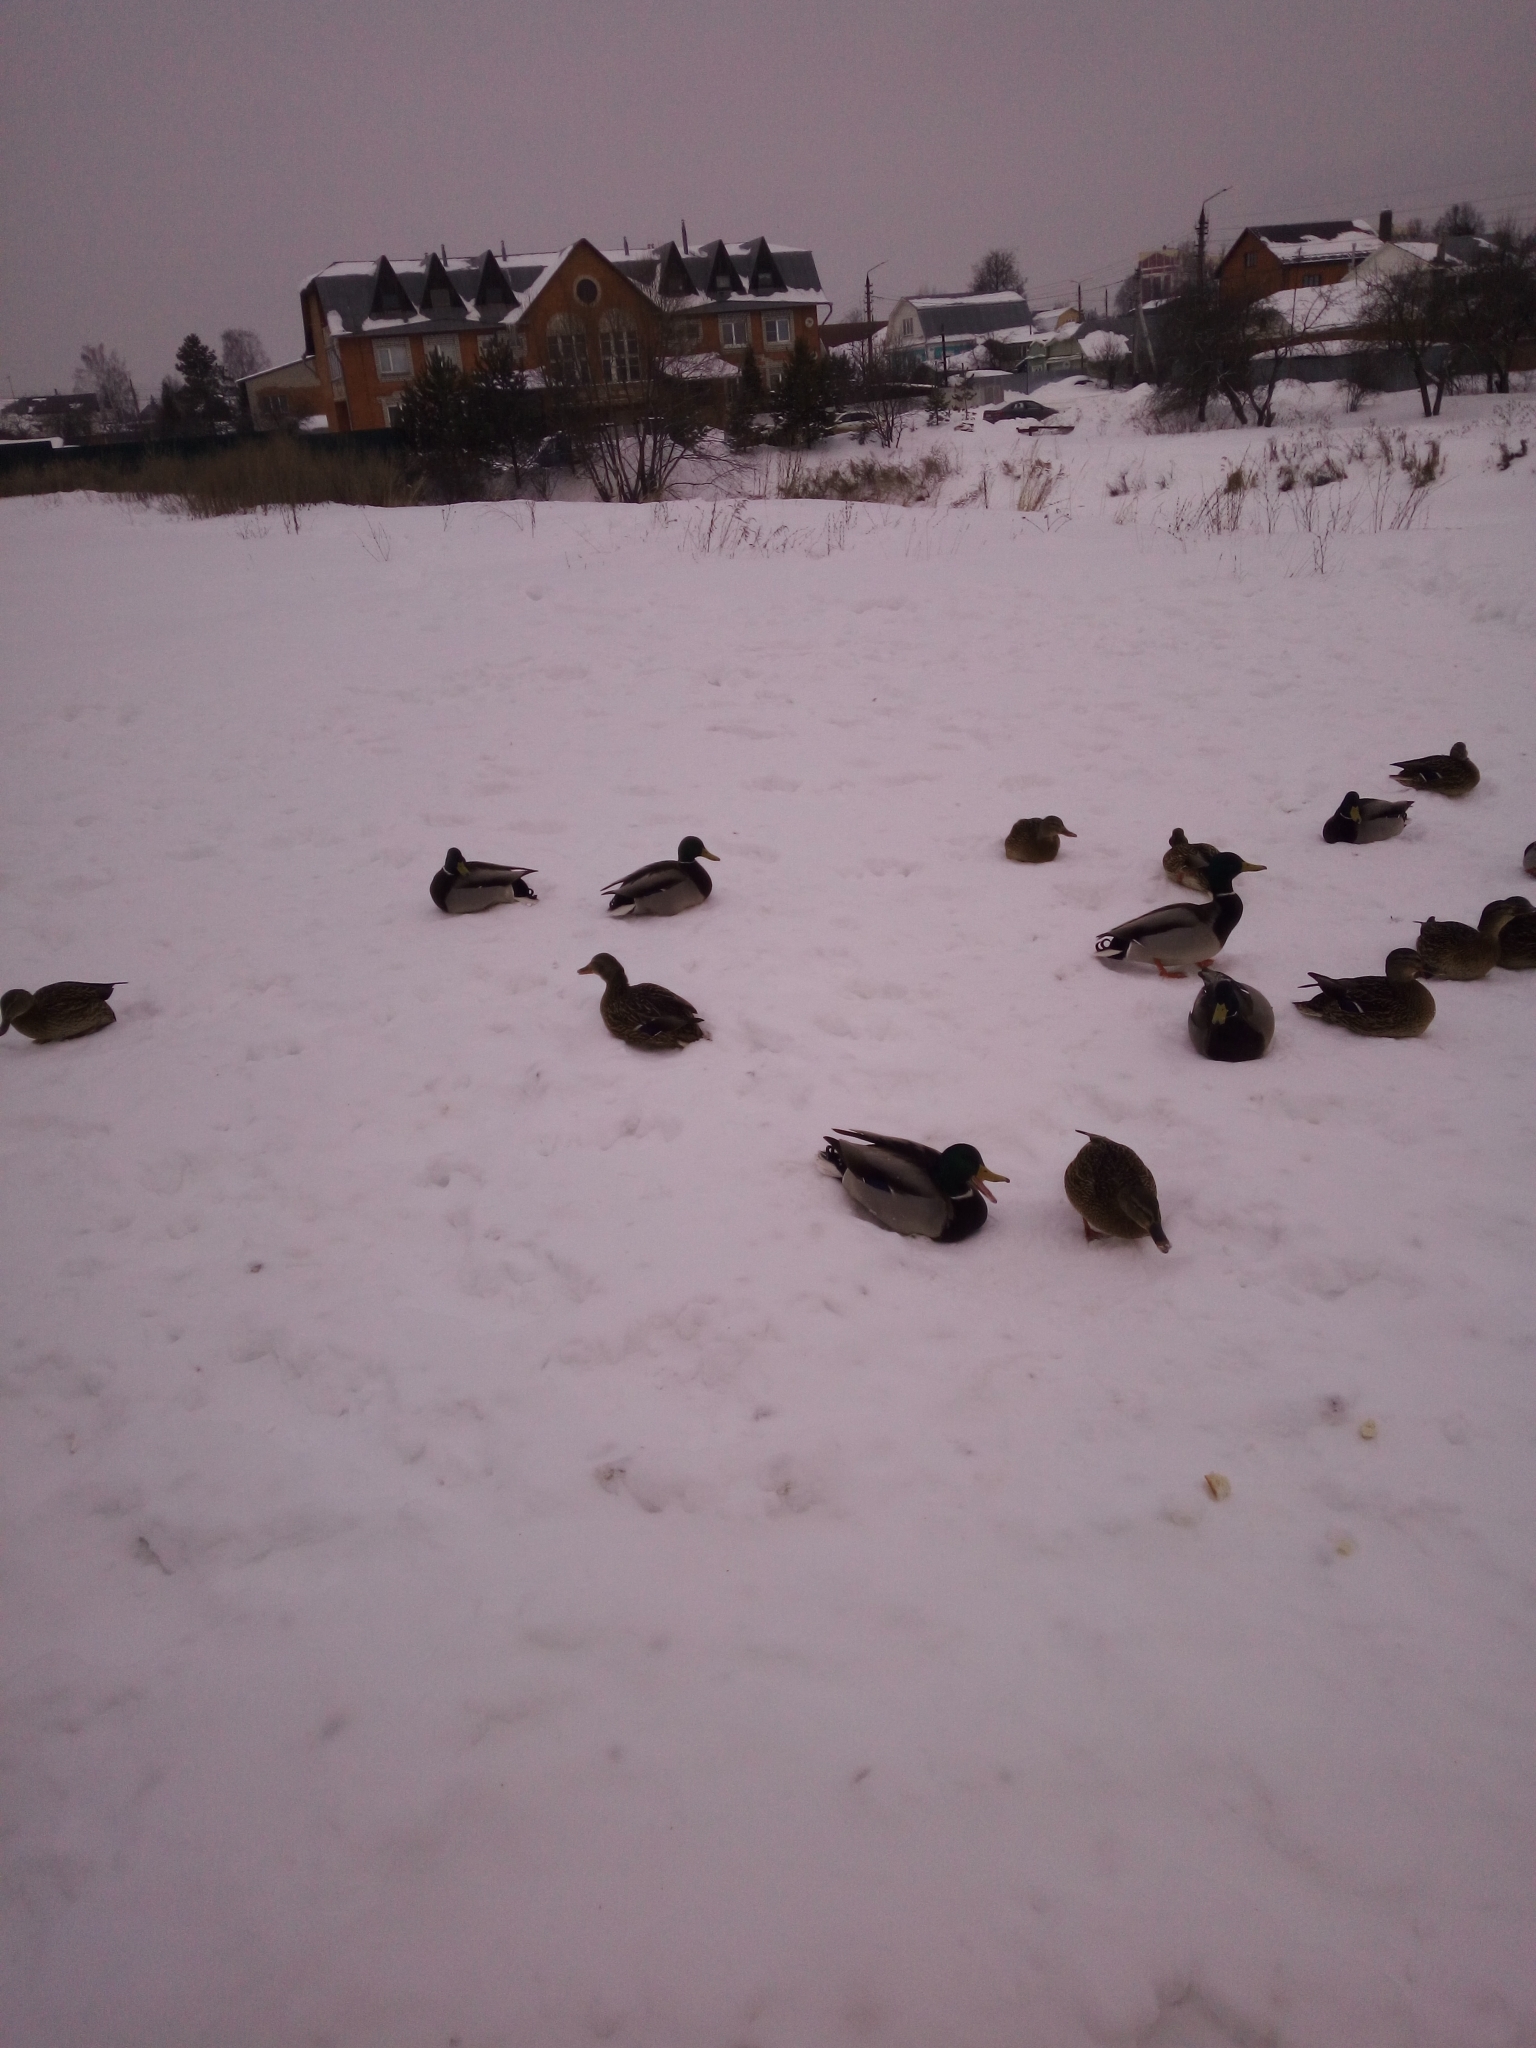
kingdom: Animalia
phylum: Chordata
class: Aves
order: Anseriformes
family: Anatidae
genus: Anas
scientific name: Anas platyrhynchos
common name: Mallard
